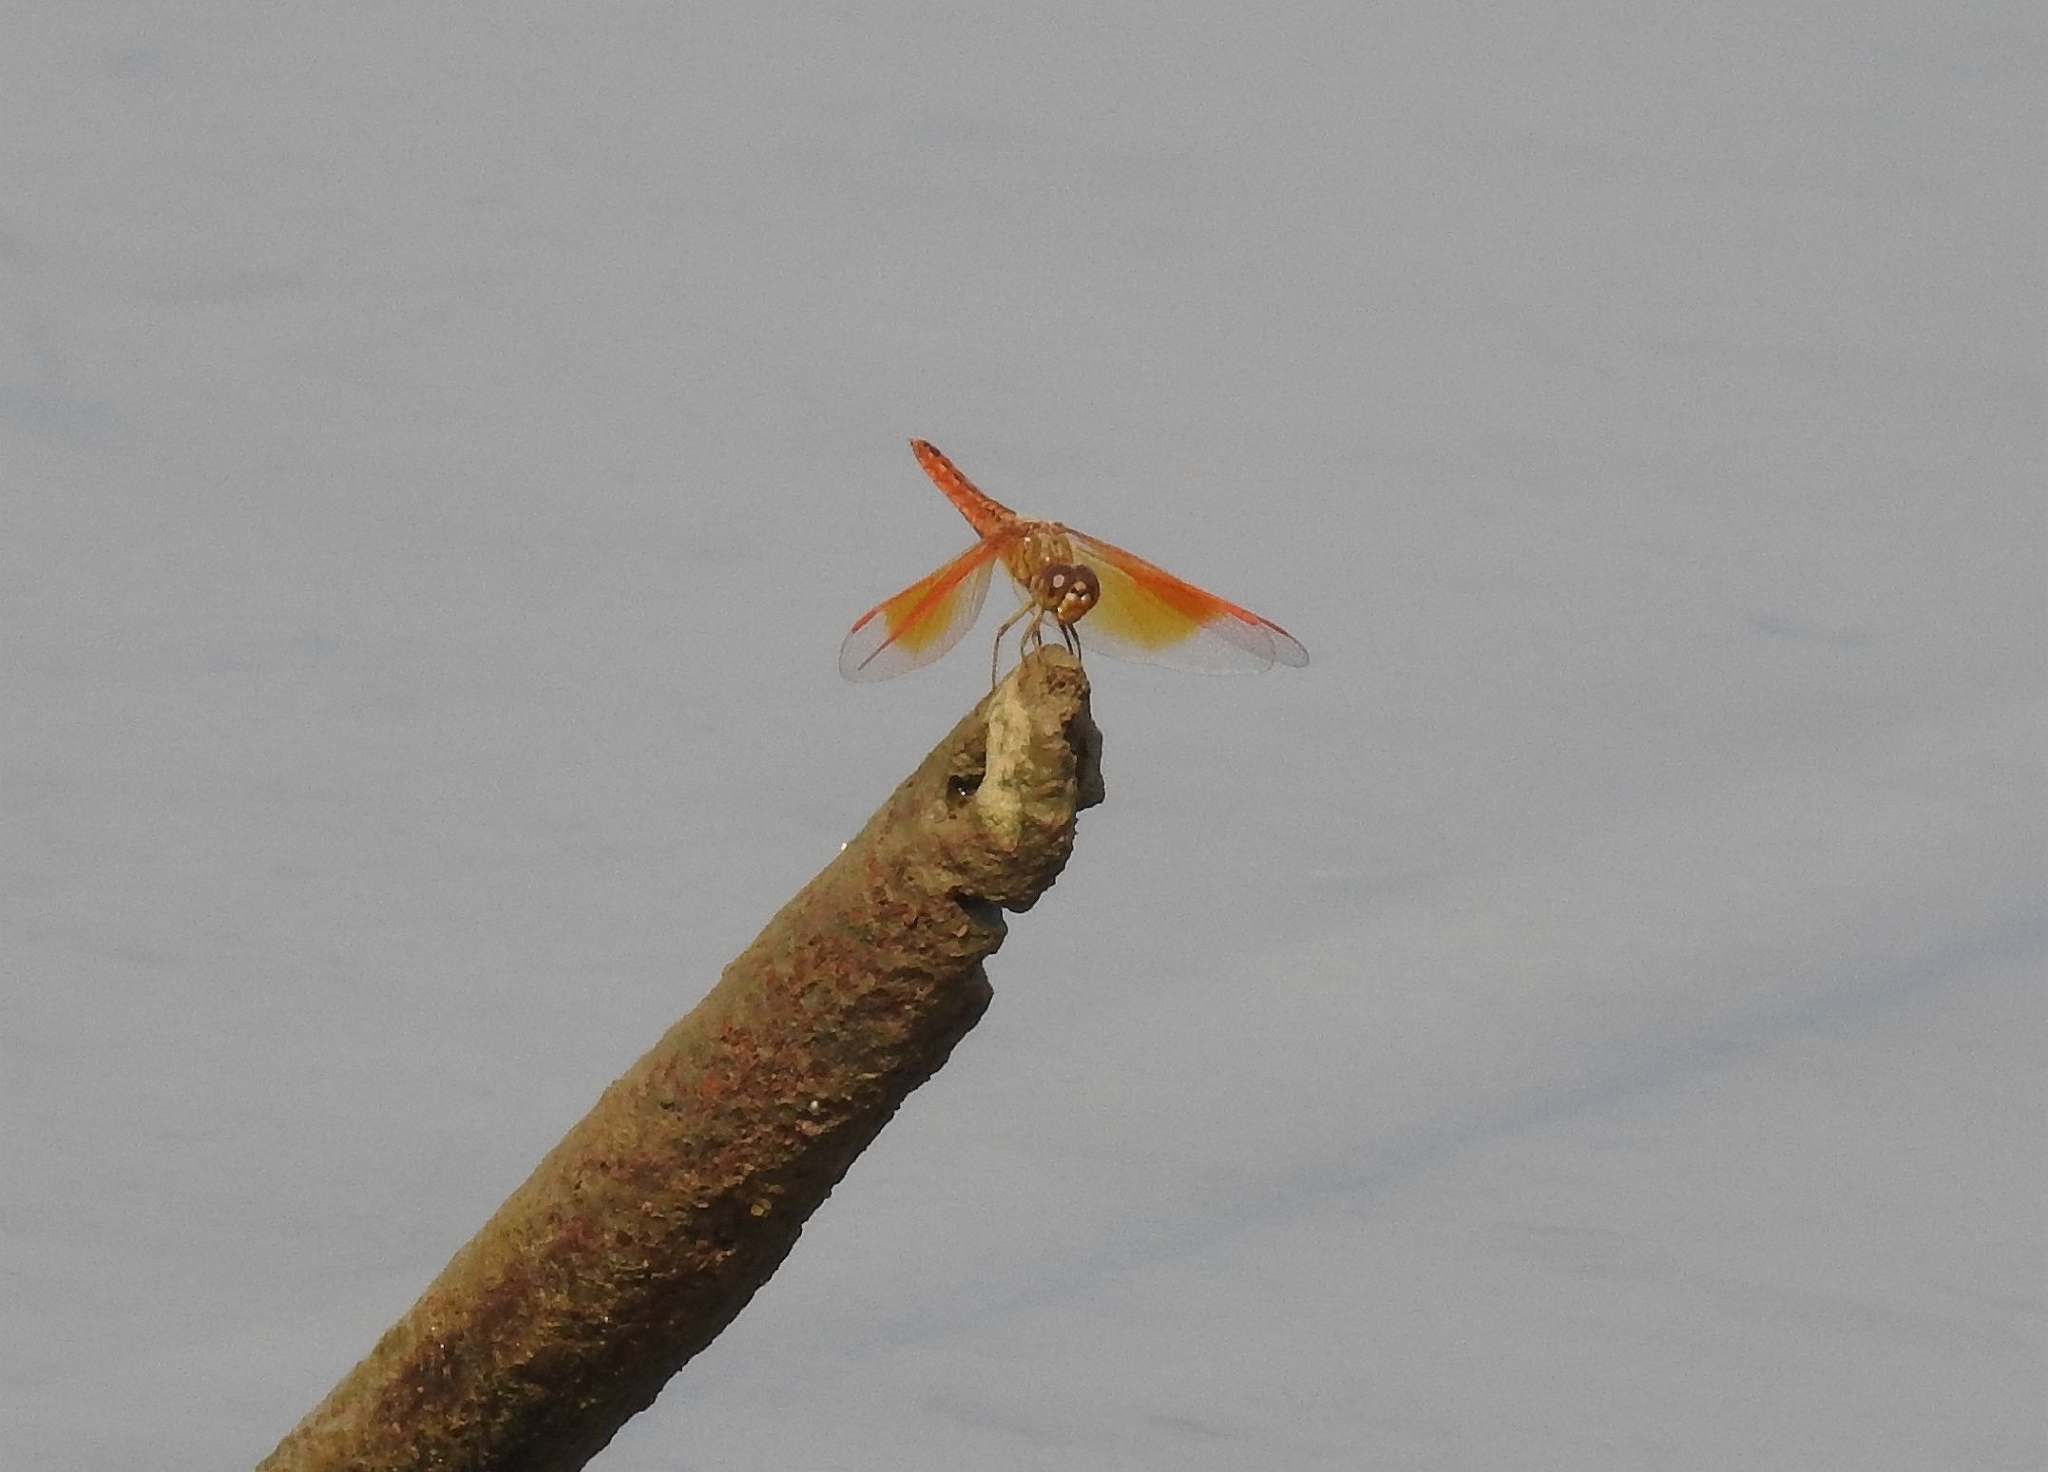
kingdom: Animalia
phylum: Arthropoda
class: Insecta
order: Odonata
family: Libellulidae
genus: Brachythemis
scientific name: Brachythemis contaminata
